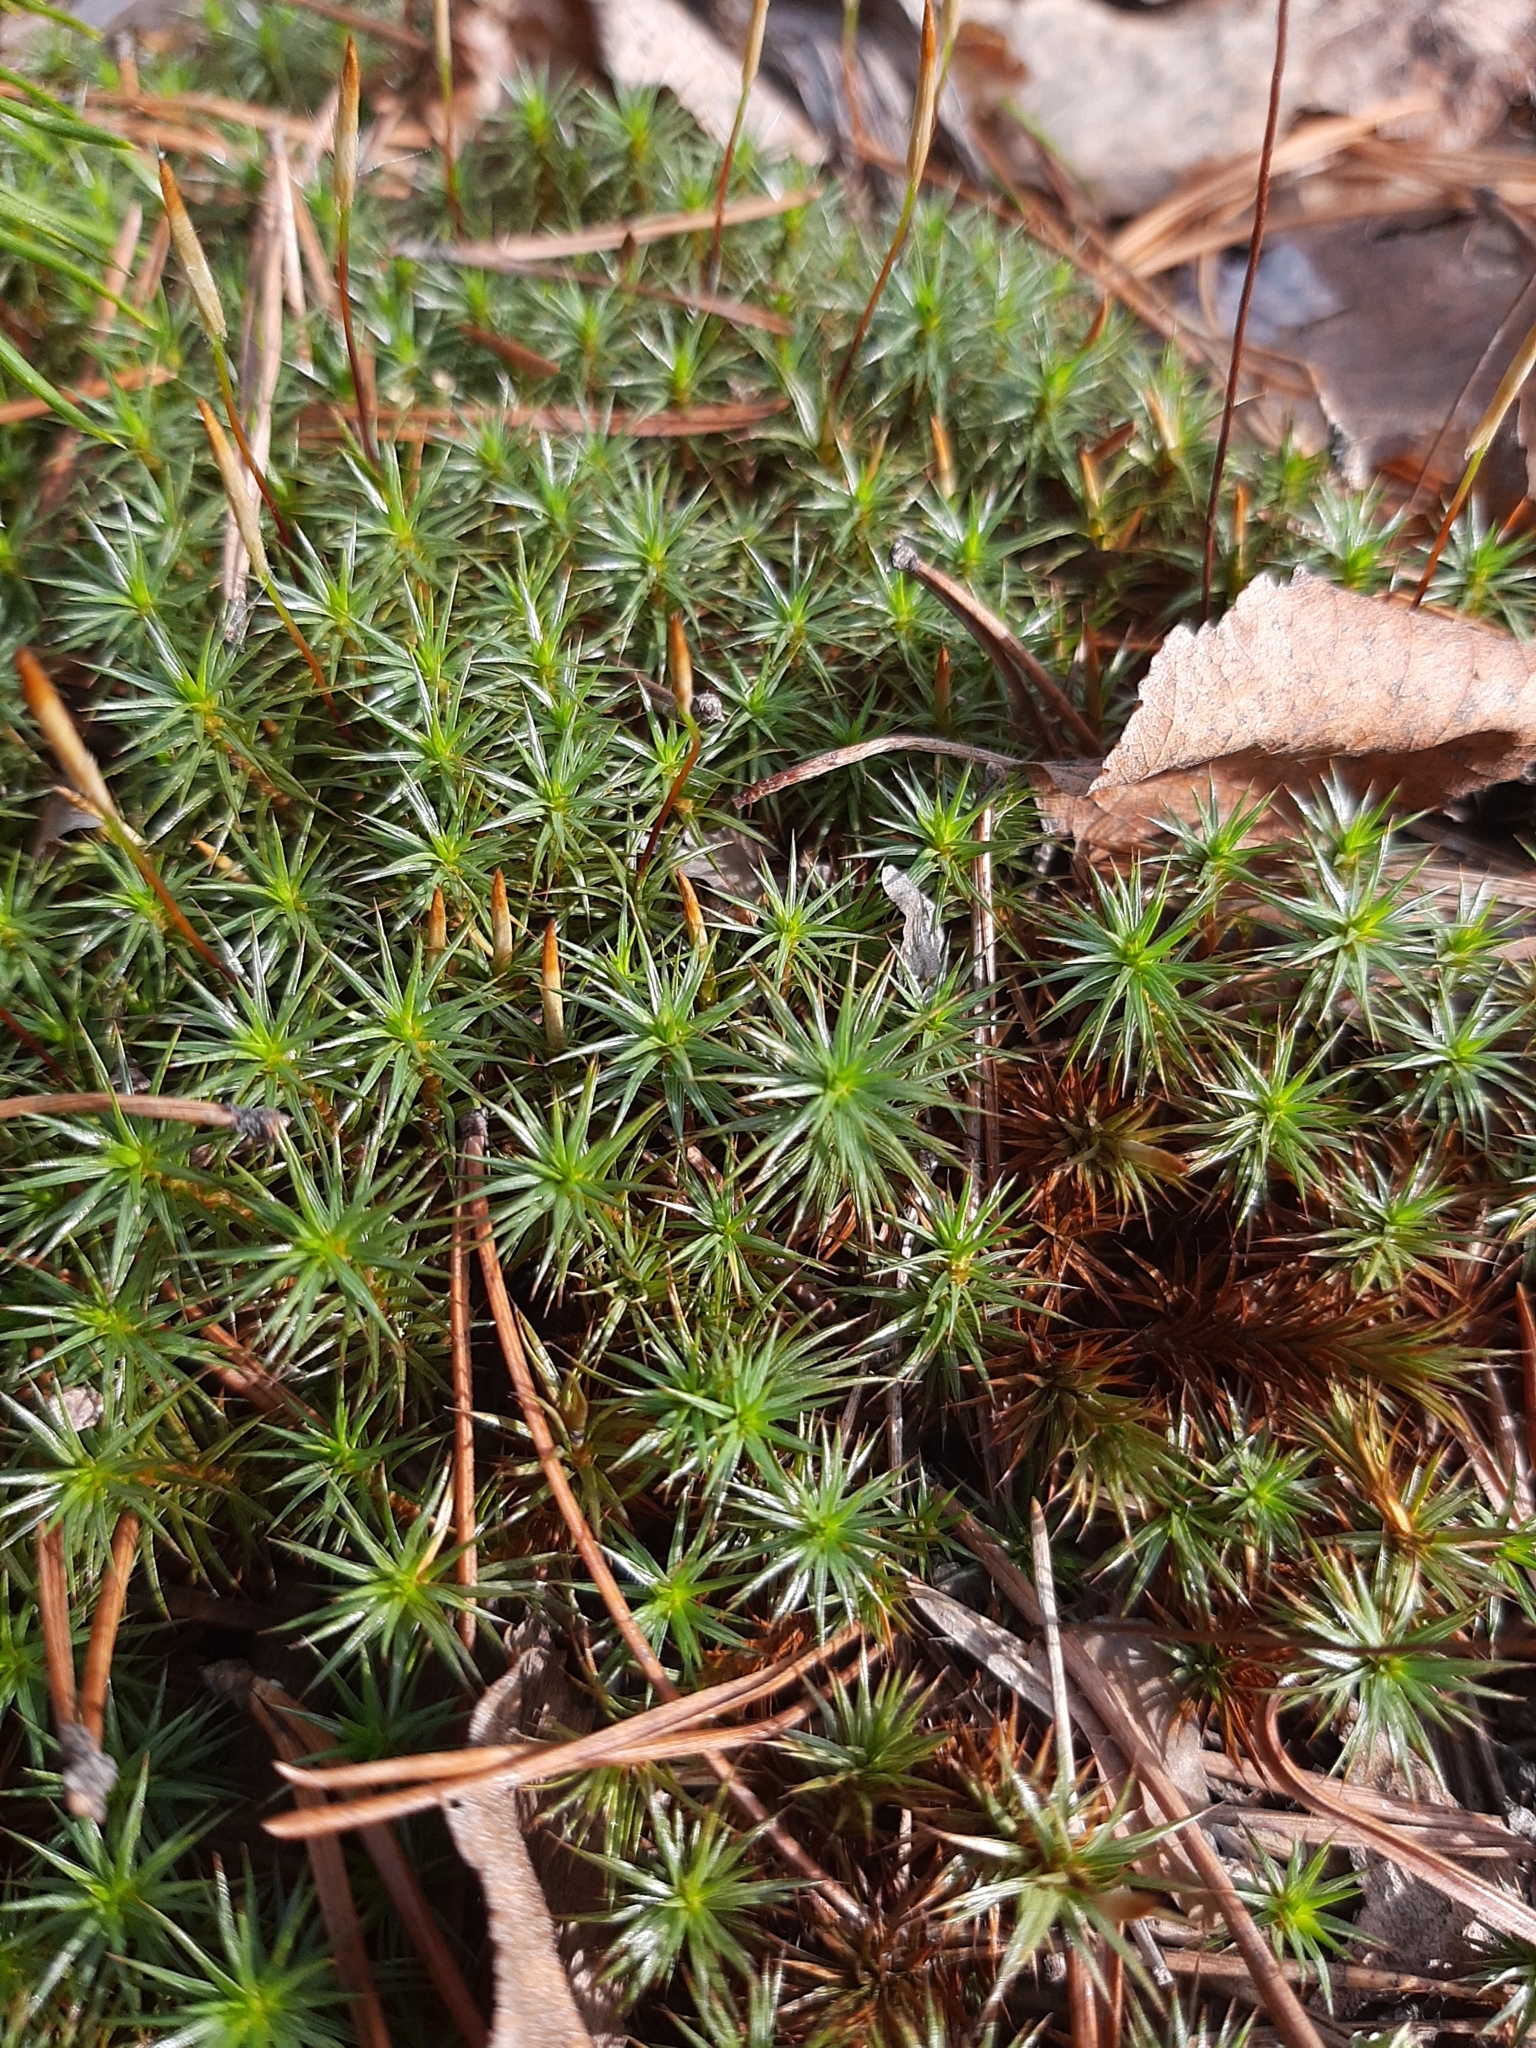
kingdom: Plantae
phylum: Bryophyta
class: Polytrichopsida
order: Polytrichales
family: Polytrichaceae
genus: Polytrichum
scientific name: Polytrichum juniperinum
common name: Juniper haircap moss
